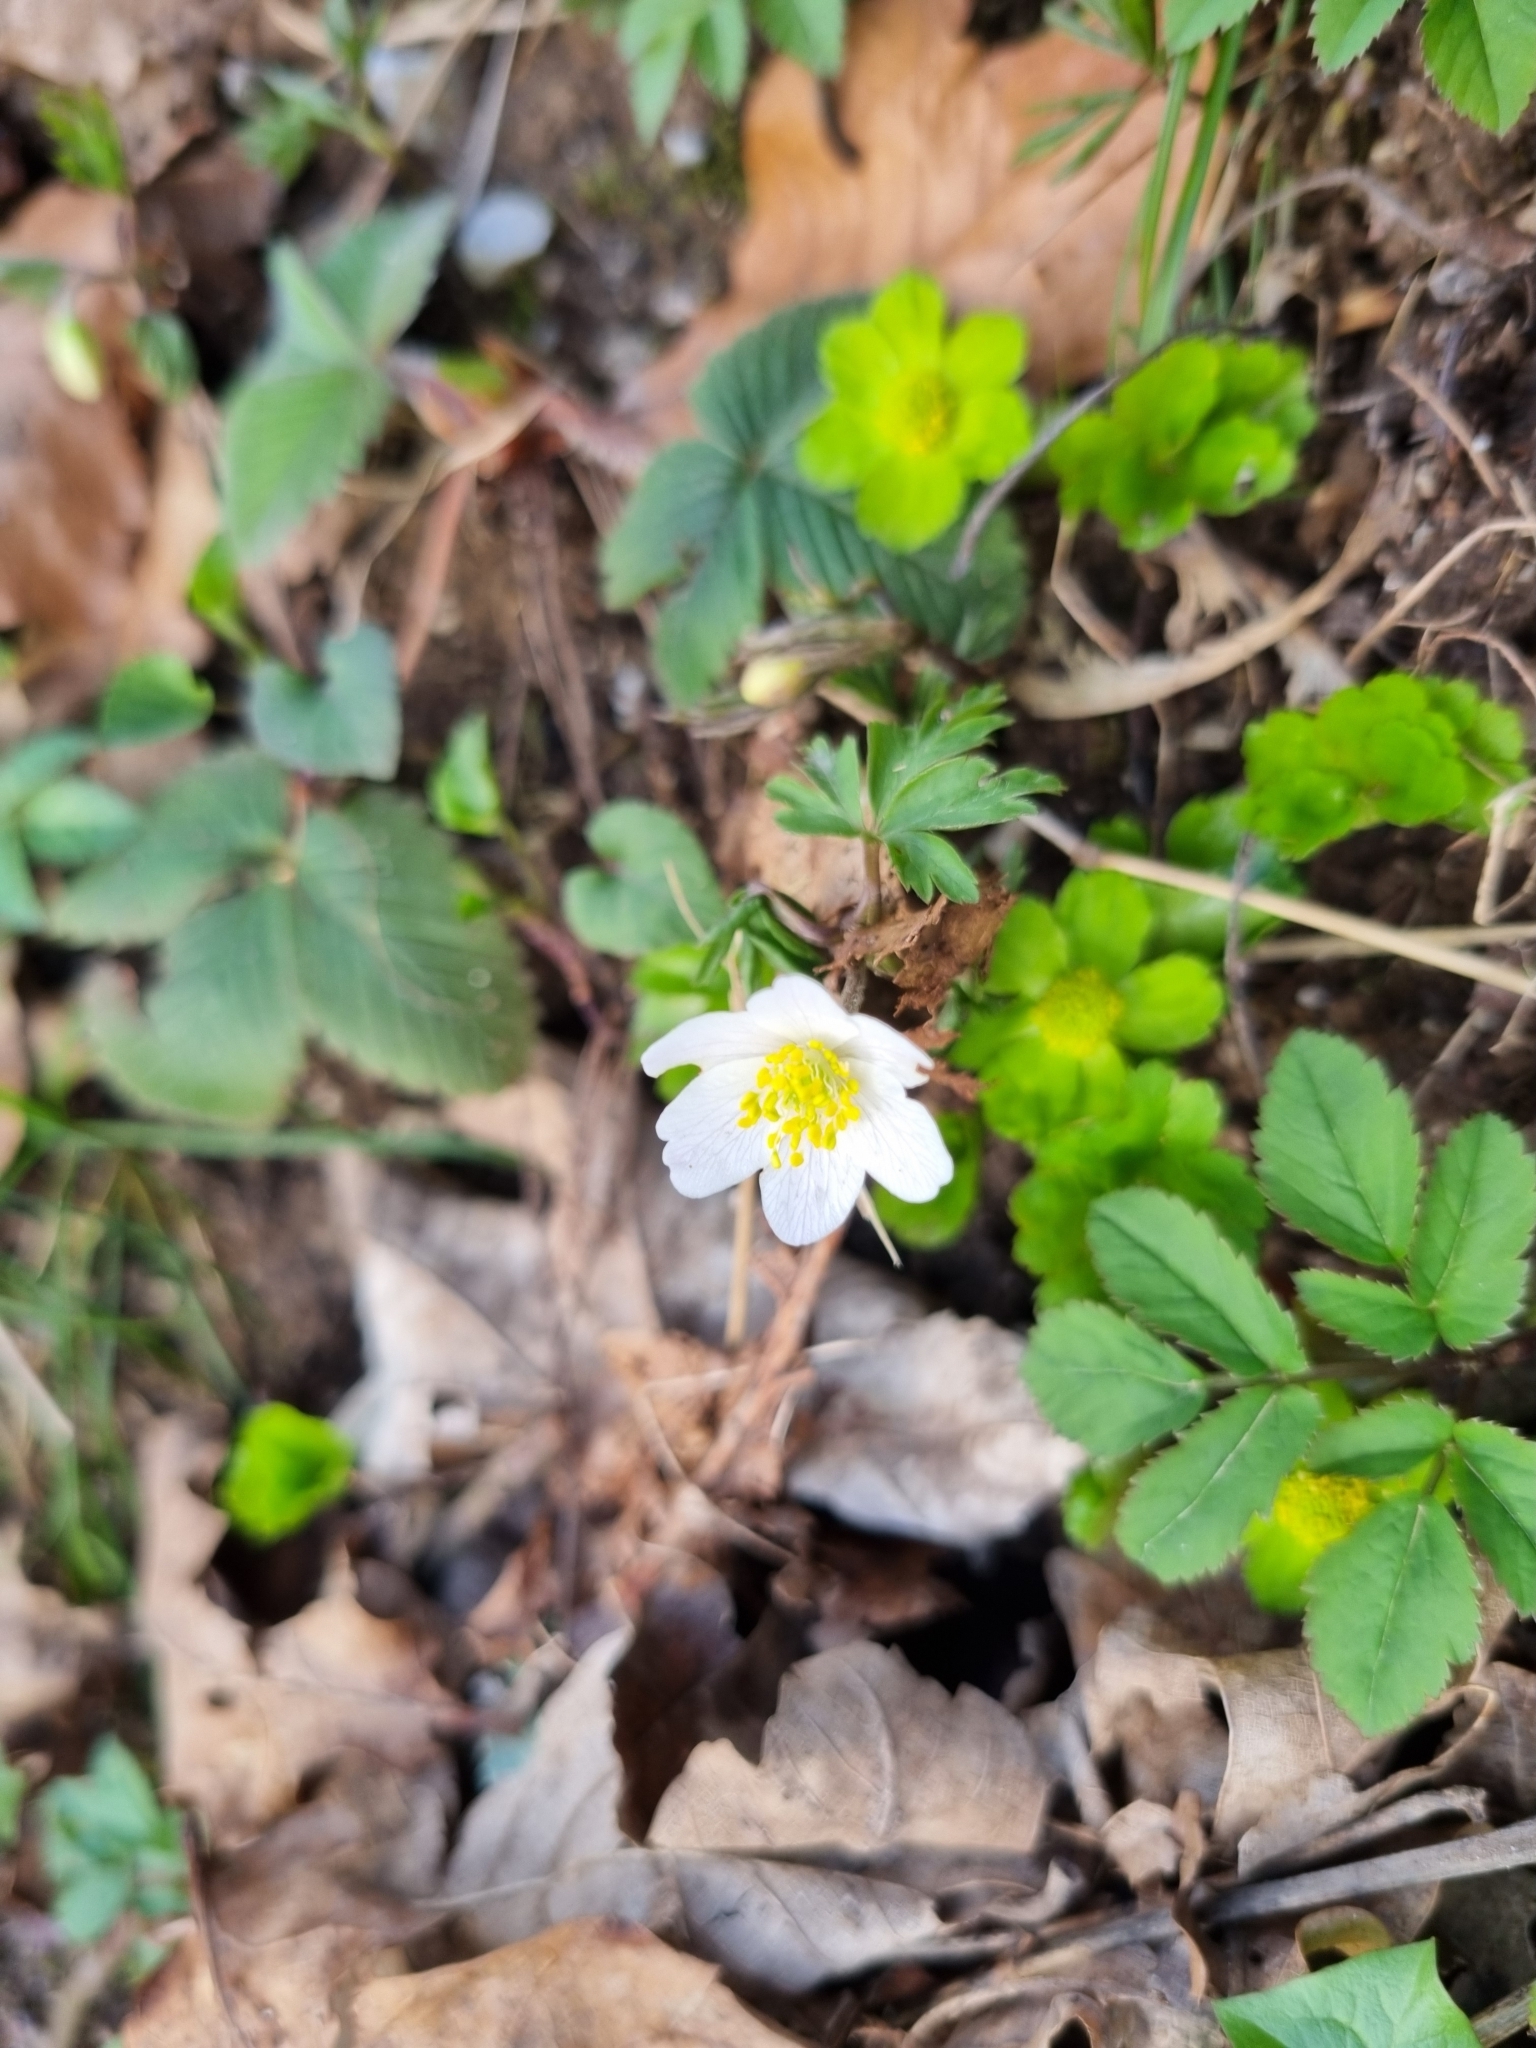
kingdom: Plantae
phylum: Tracheophyta
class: Magnoliopsida
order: Ranunculales
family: Ranunculaceae
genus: Anemone
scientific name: Anemone nemorosa
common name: Wood anemone
